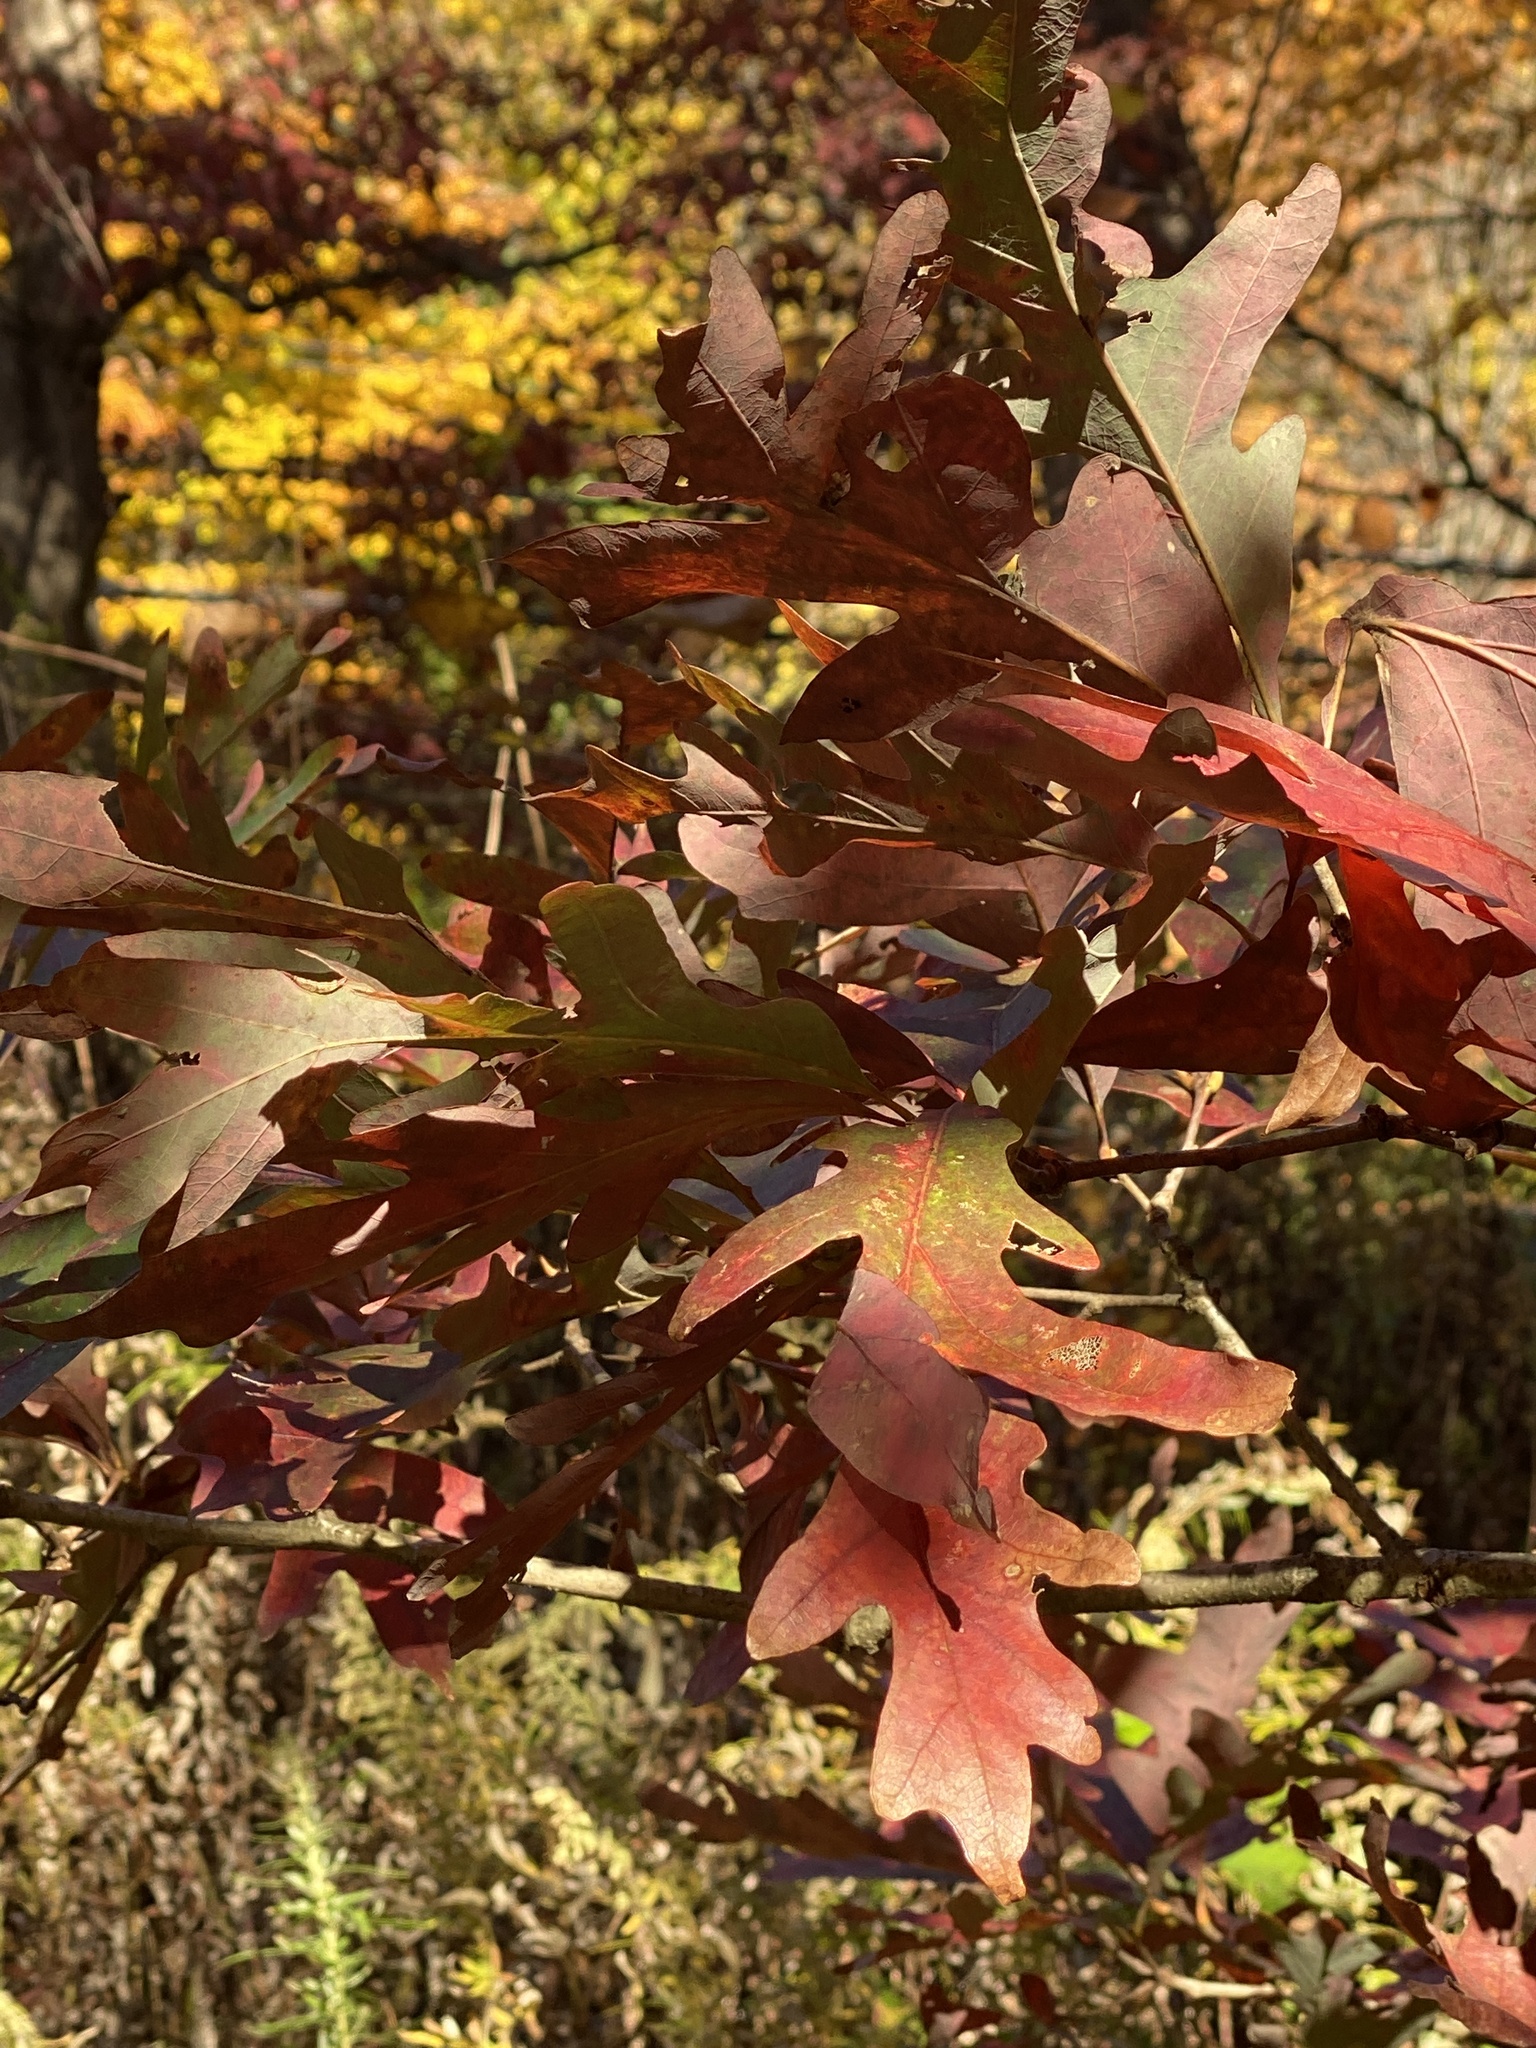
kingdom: Plantae
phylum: Tracheophyta
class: Magnoliopsida
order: Fagales
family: Fagaceae
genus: Quercus
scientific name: Quercus alba
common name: White oak
